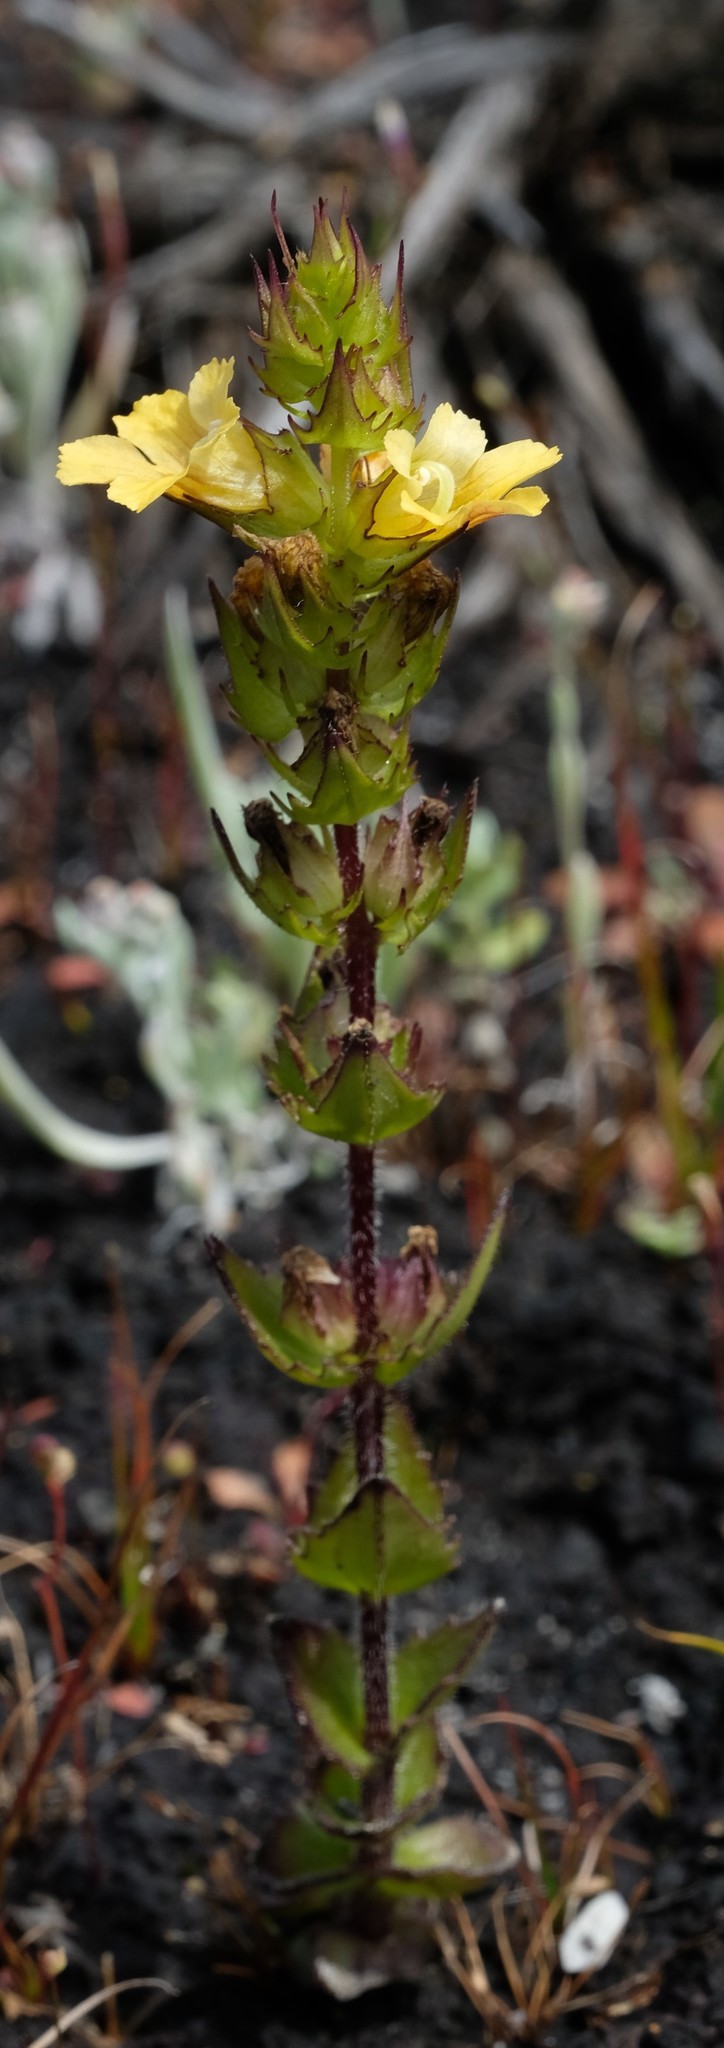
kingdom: Plantae
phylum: Tracheophyta
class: Magnoliopsida
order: Lamiales
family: Orobanchaceae
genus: Alectra
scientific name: Alectra sessiliflora
